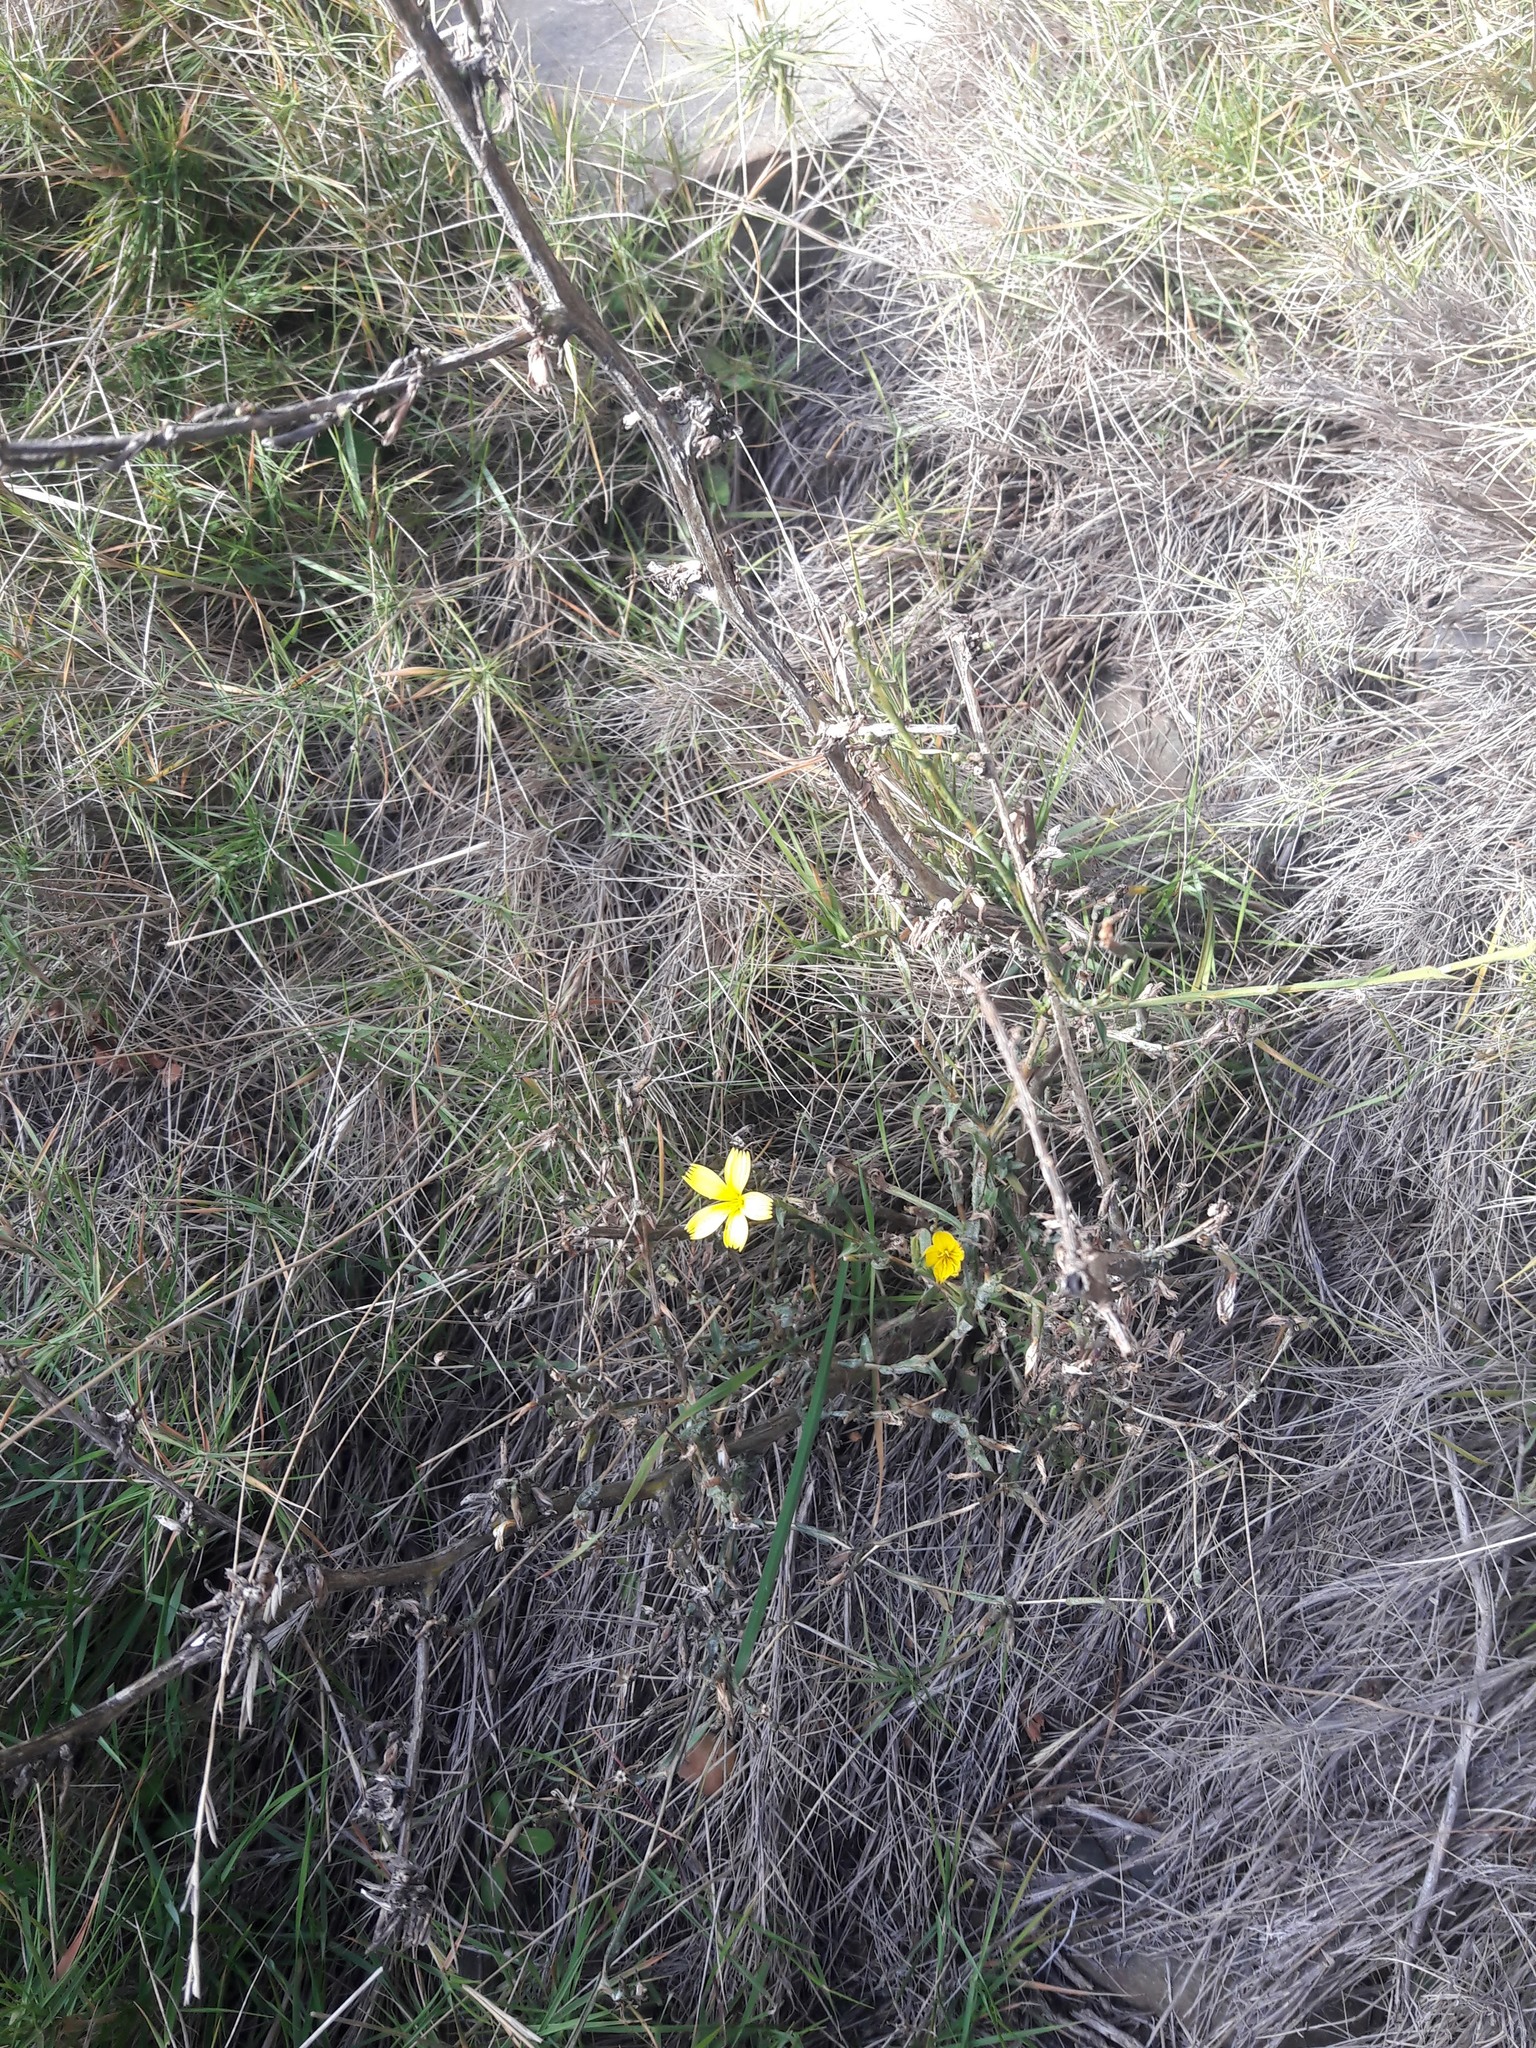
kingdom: Plantae
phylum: Tracheophyta
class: Magnoliopsida
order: Asterales
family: Asteraceae
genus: Lactuca
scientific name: Lactuca viminea
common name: Pliant lettuce
